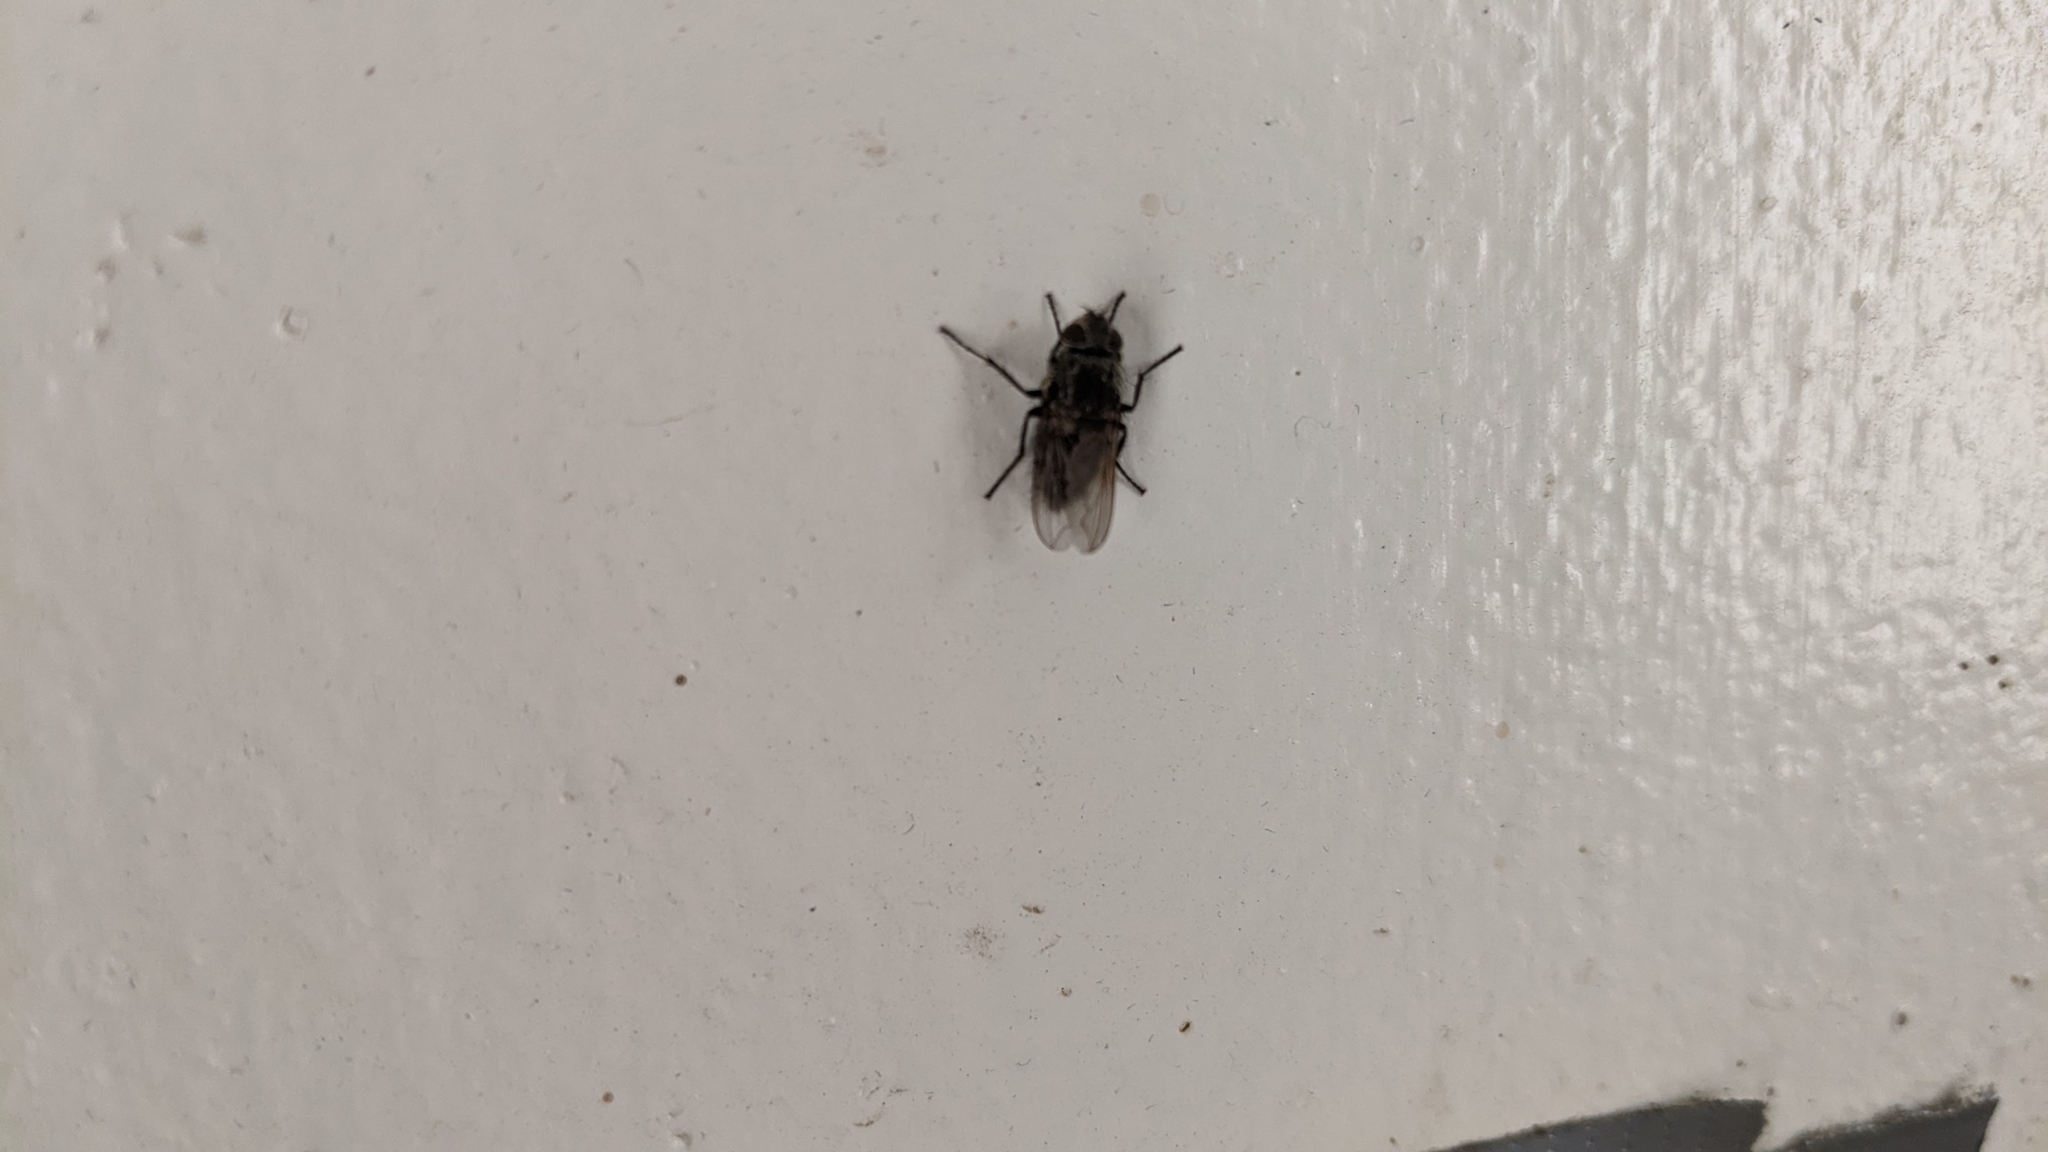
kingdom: Animalia
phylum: Arthropoda
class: Insecta
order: Diptera
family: Polleniidae
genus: Pollenia
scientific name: Pollenia
